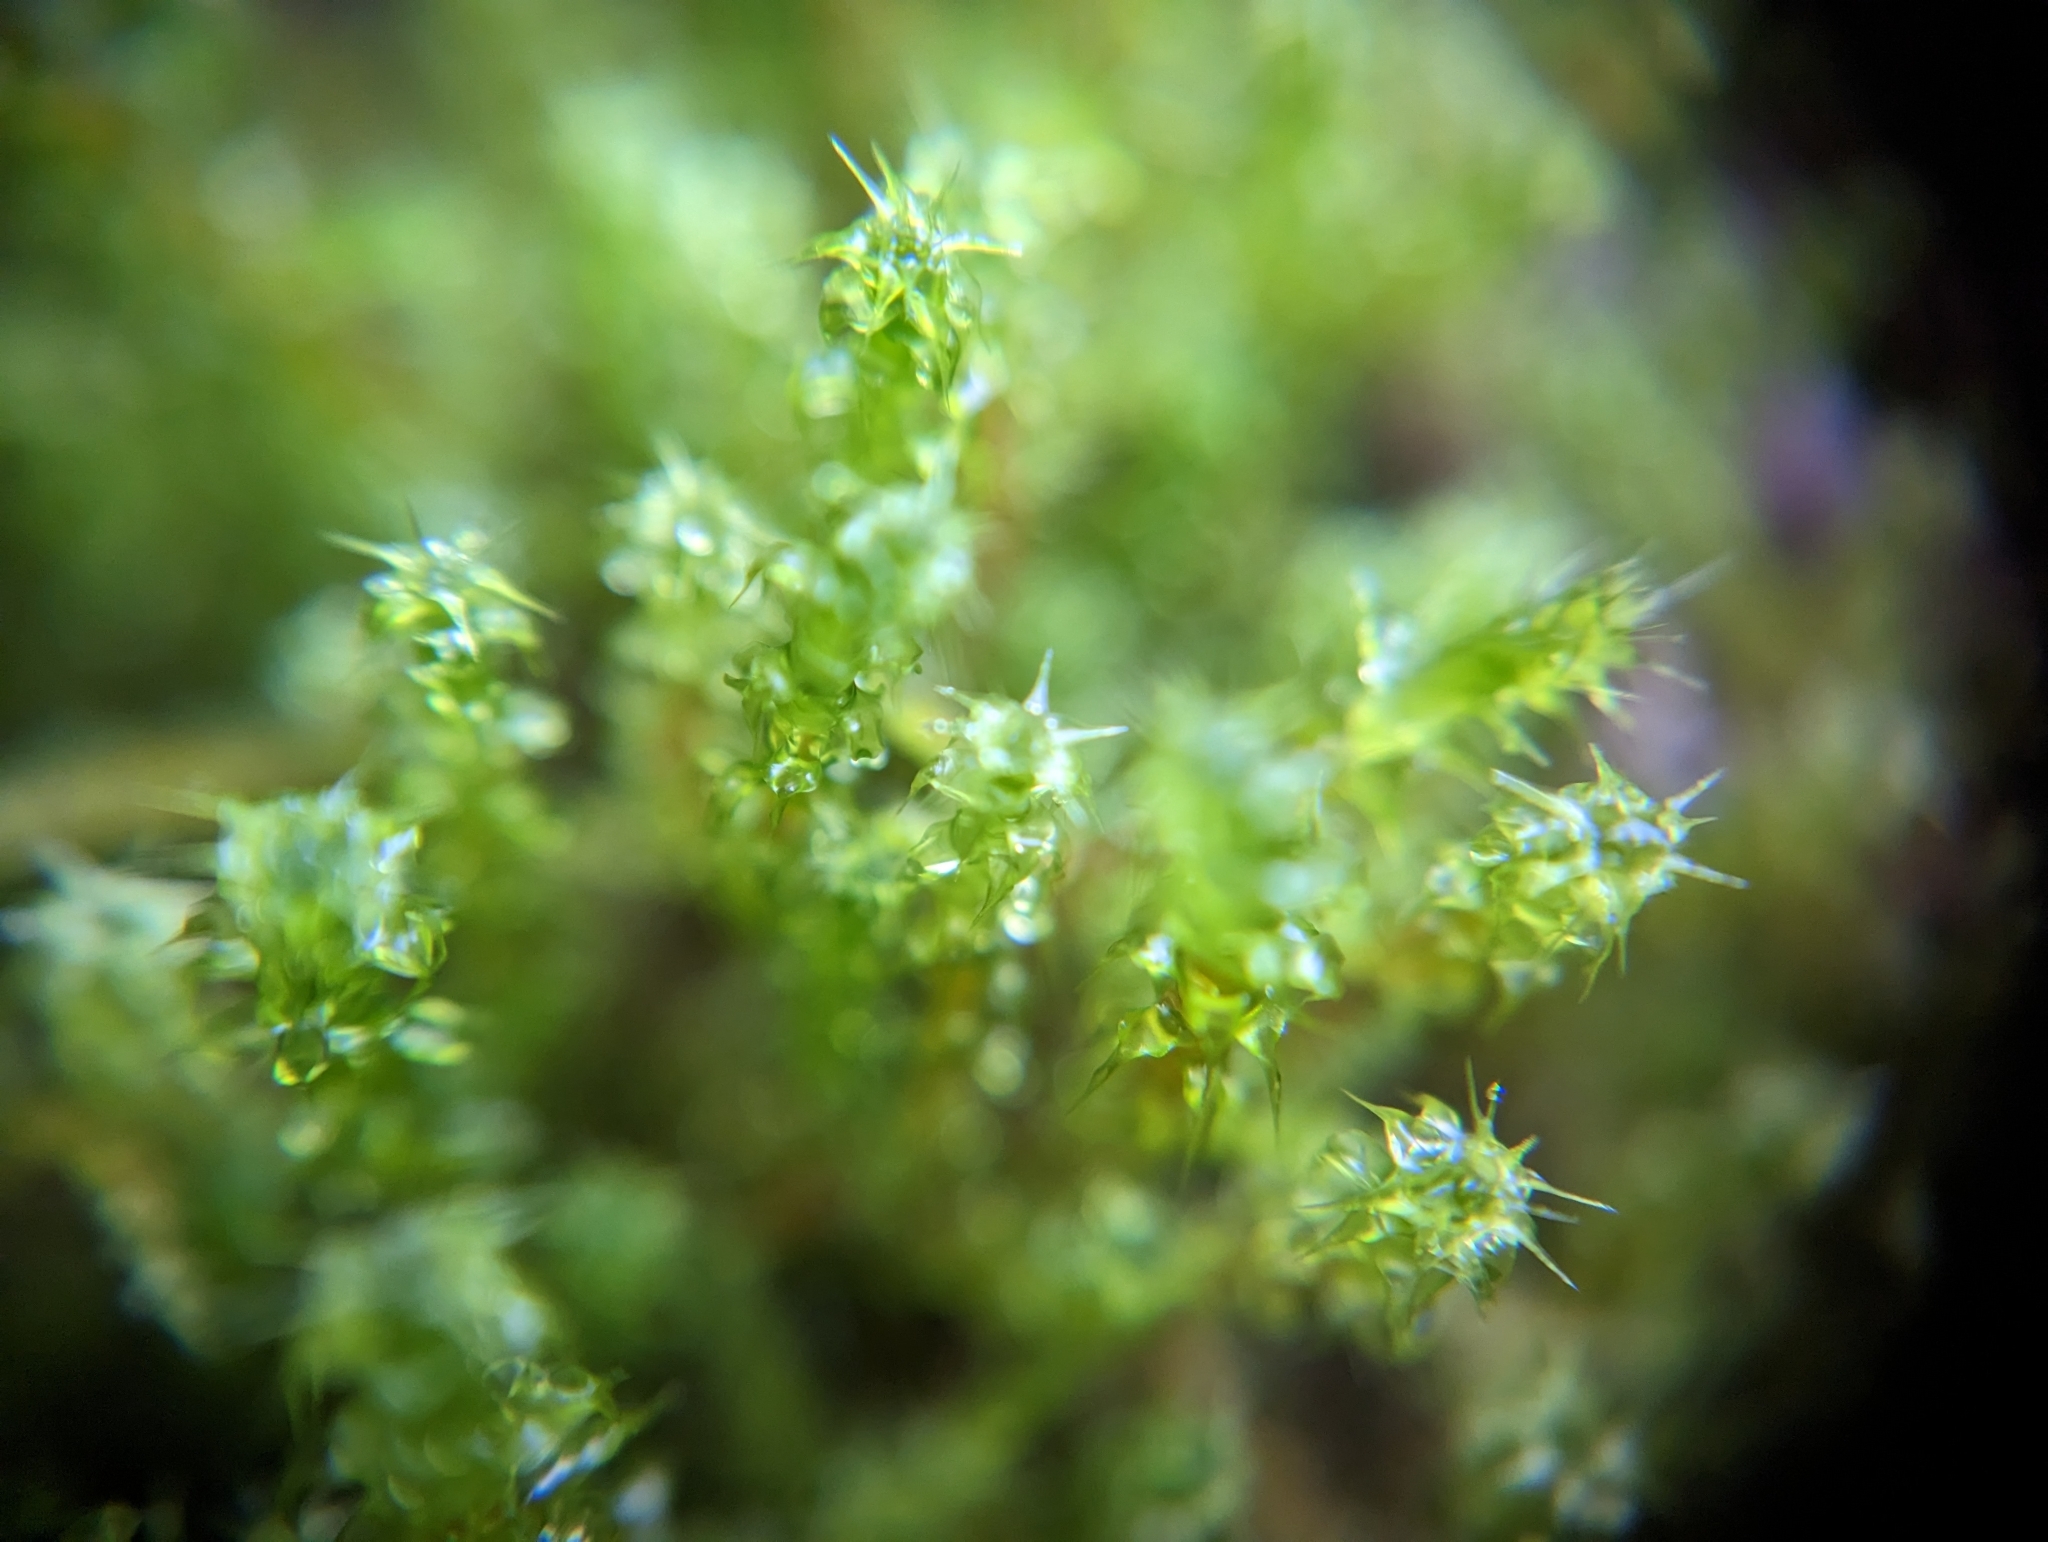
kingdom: Plantae
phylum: Bryophyta
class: Bryopsida
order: Hypnales
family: Hylocomiaceae
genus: Rhytidiadelphus
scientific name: Rhytidiadelphus squarrosus
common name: Springy turf-moss
